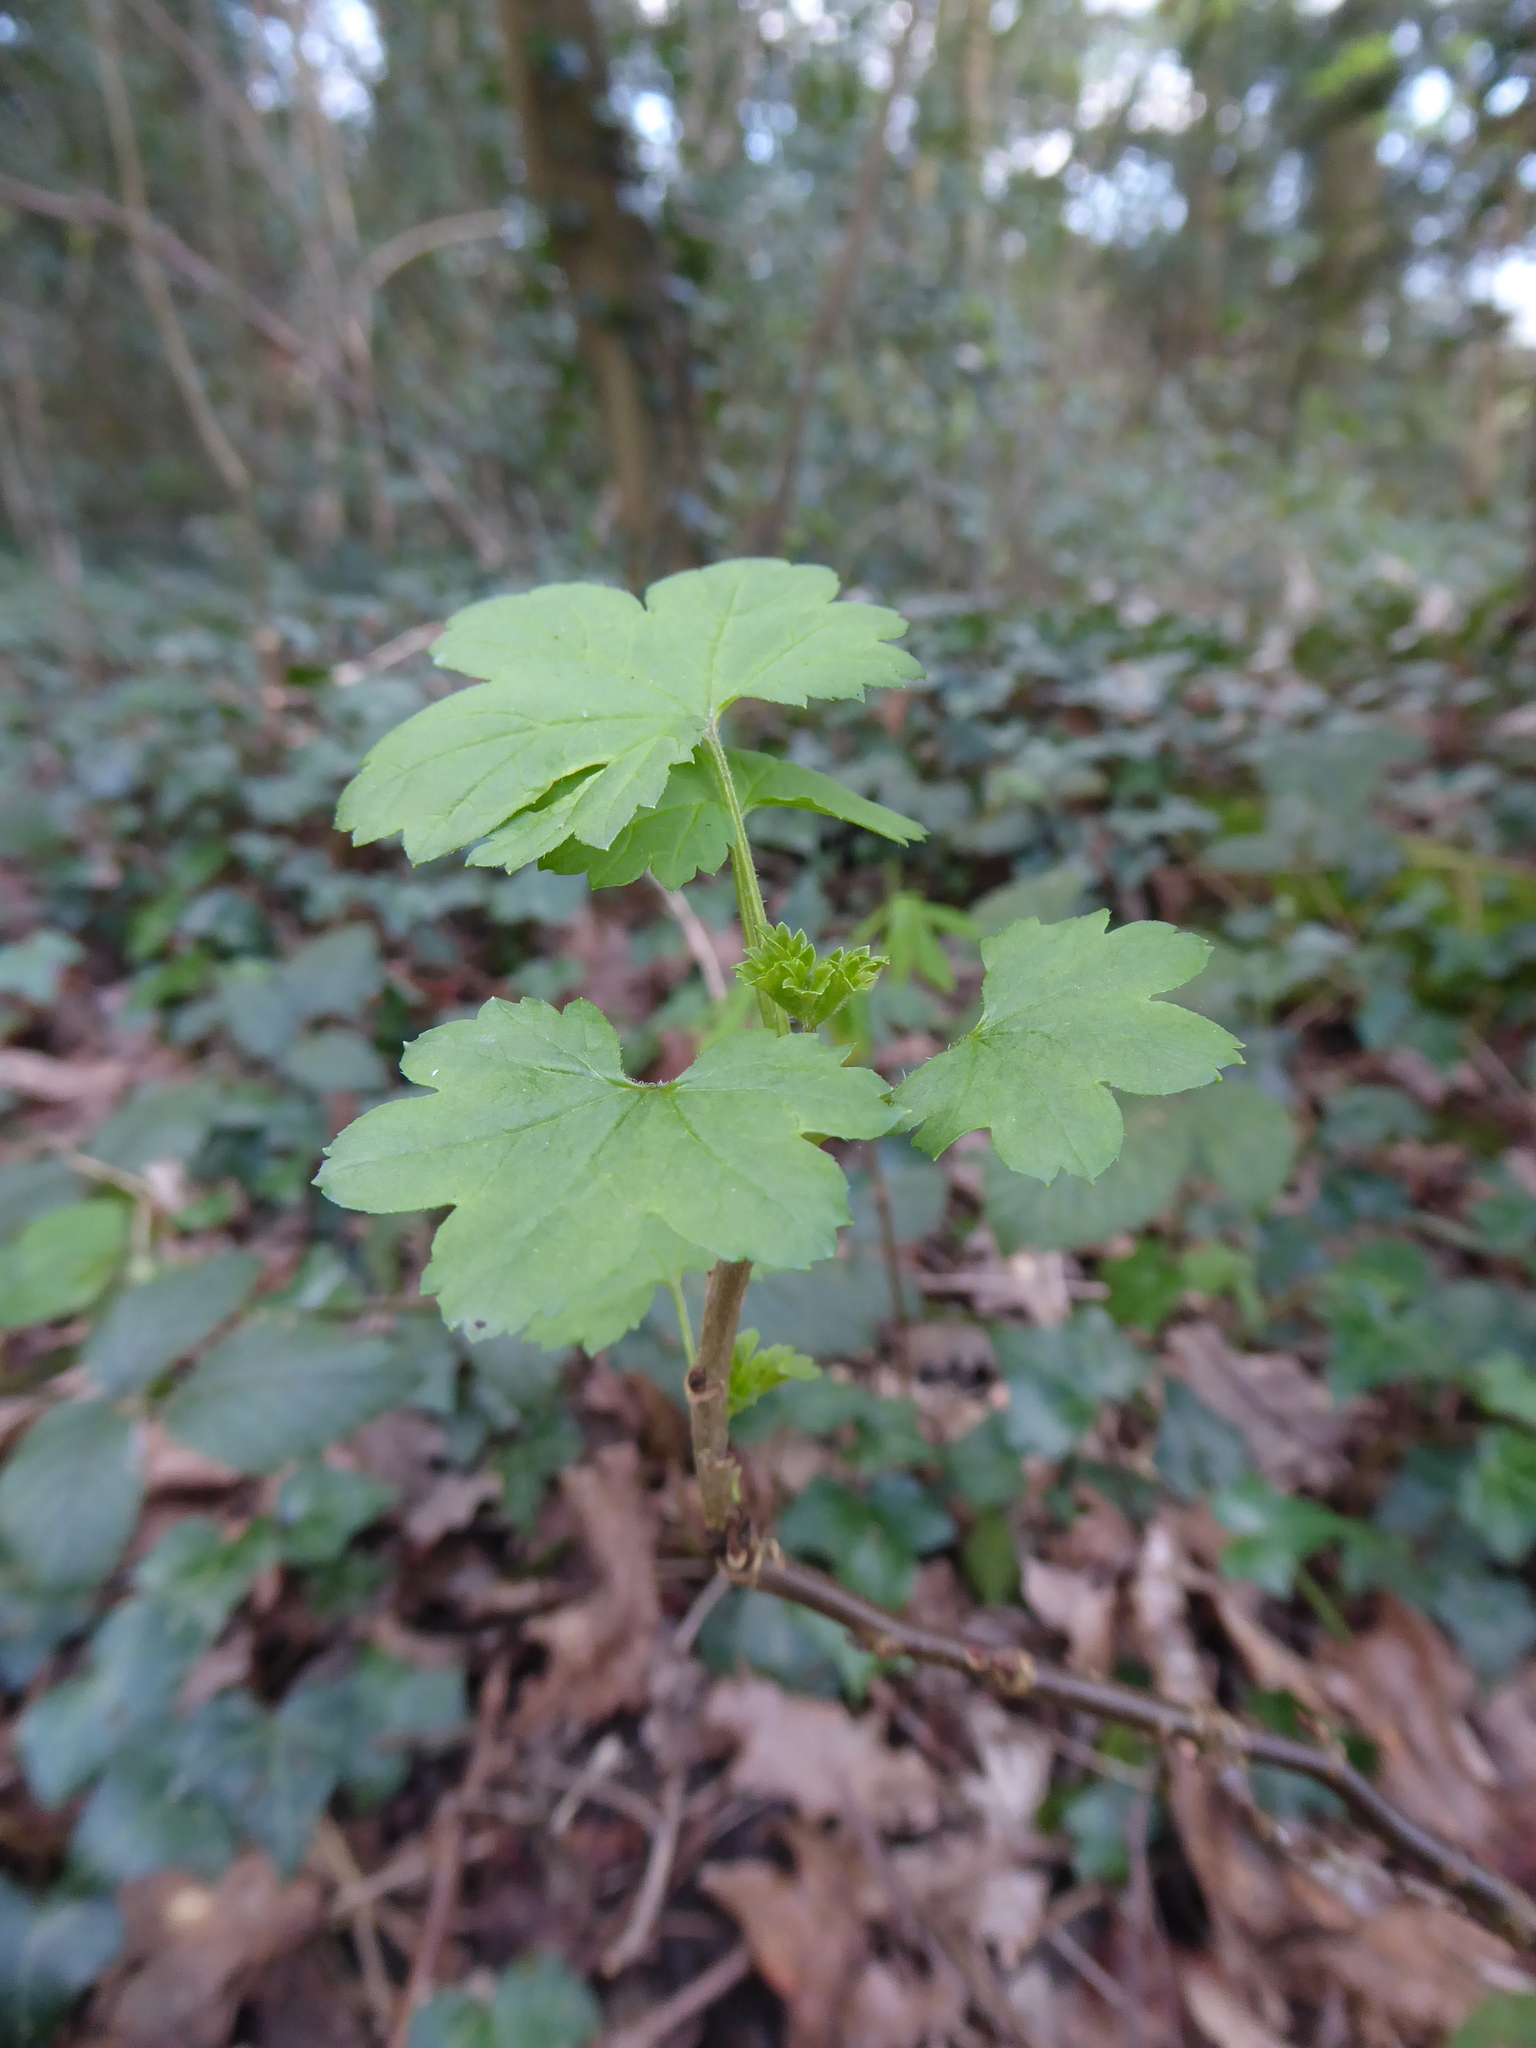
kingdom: Plantae
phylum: Tracheophyta
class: Magnoliopsida
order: Sapindales
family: Sapindaceae
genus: Acer
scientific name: Acer pseudoplatanus
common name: Sycamore
